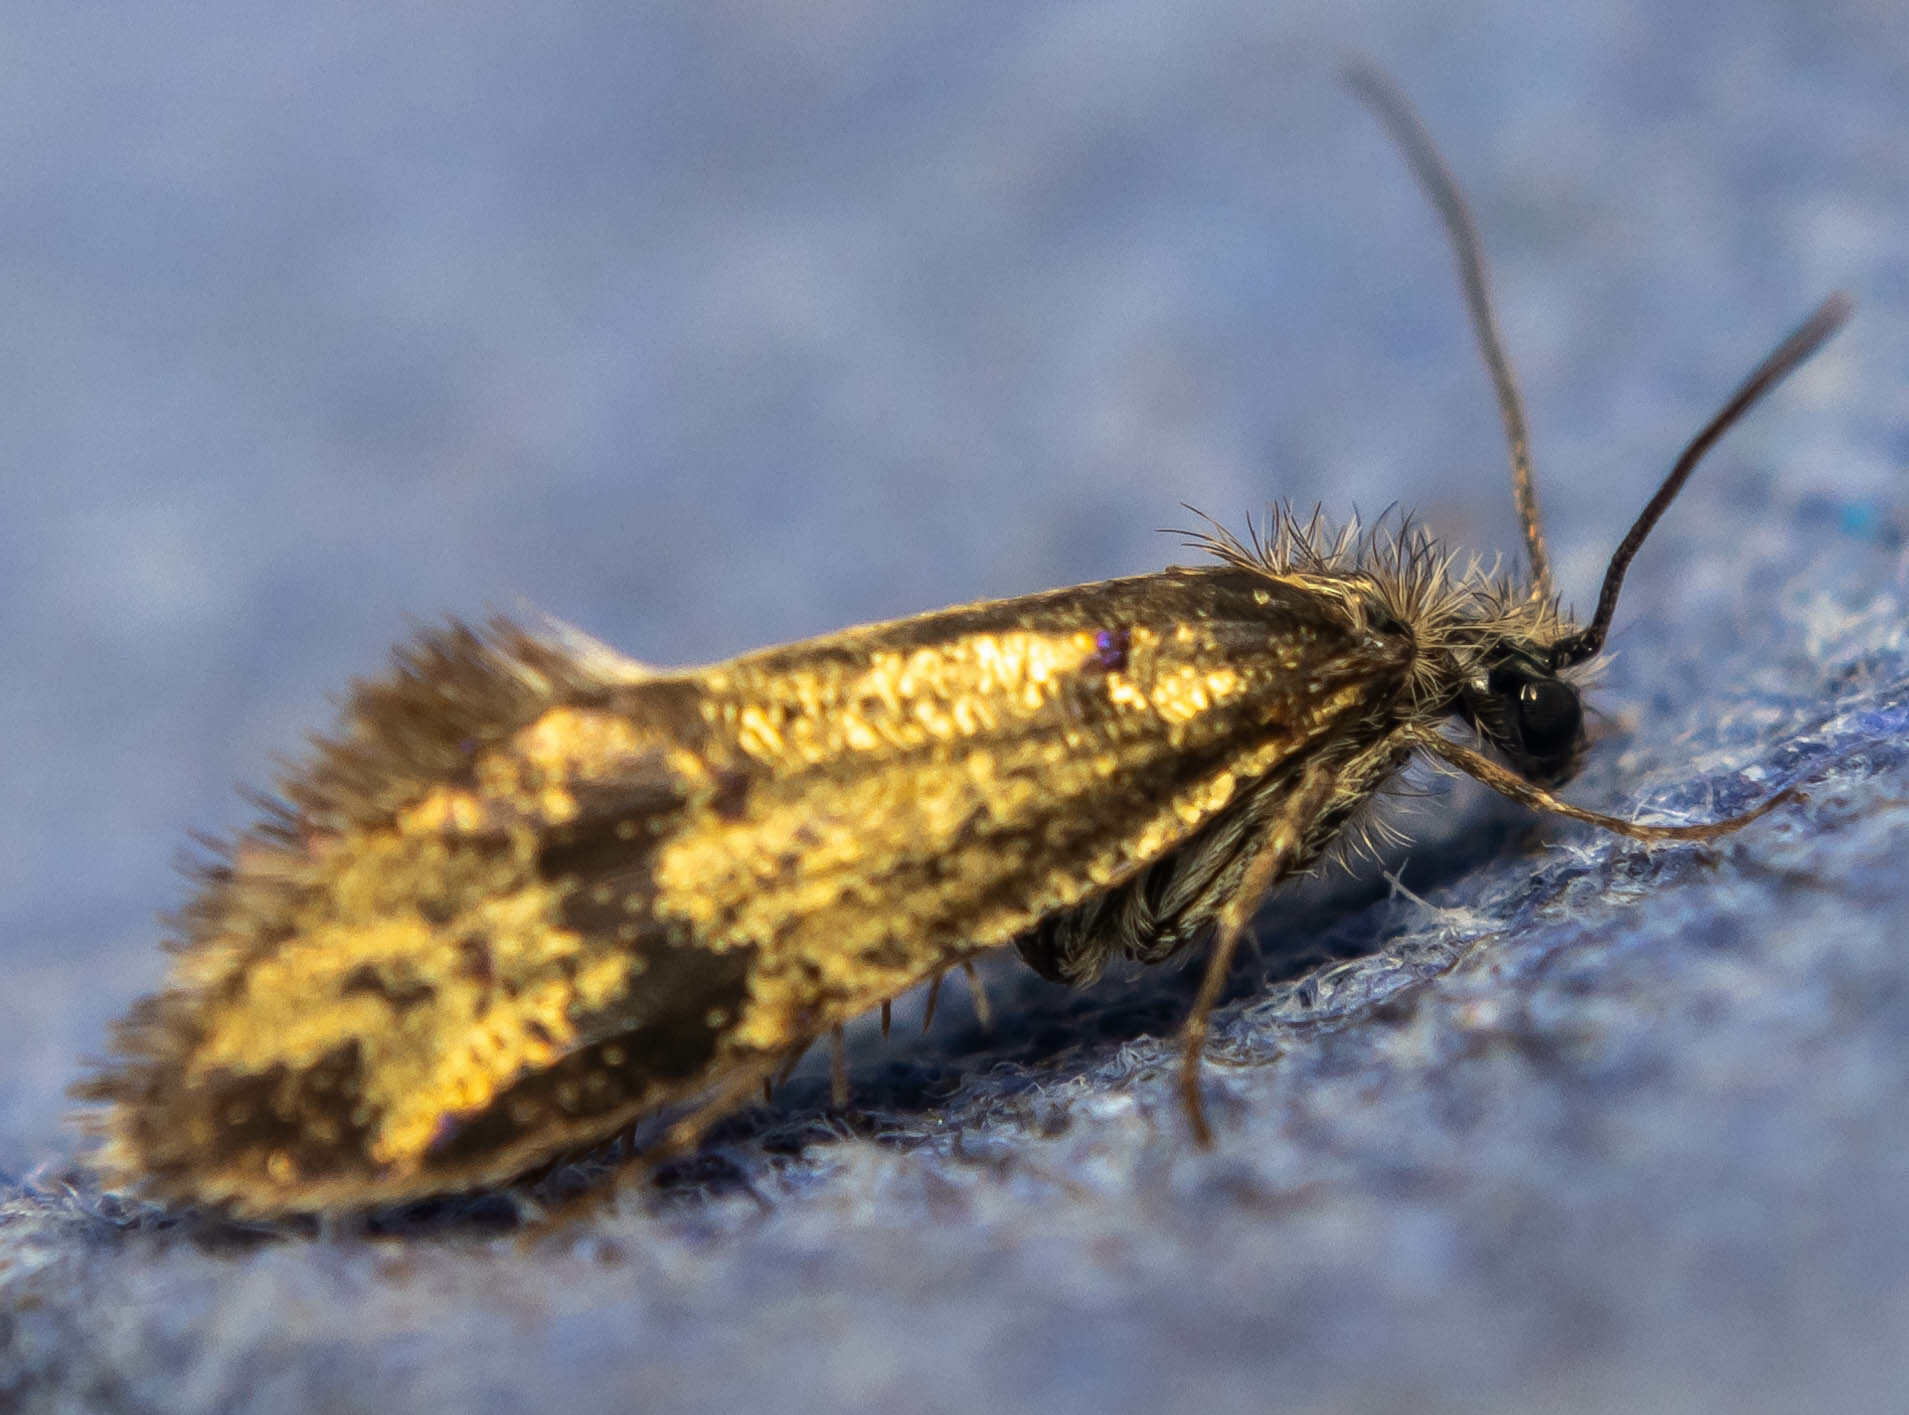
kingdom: Animalia
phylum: Arthropoda
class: Insecta
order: Lepidoptera
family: Eriocraniidae
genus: Dyseriocrania
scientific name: Dyseriocrania subpurpurella
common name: Common oak purple
